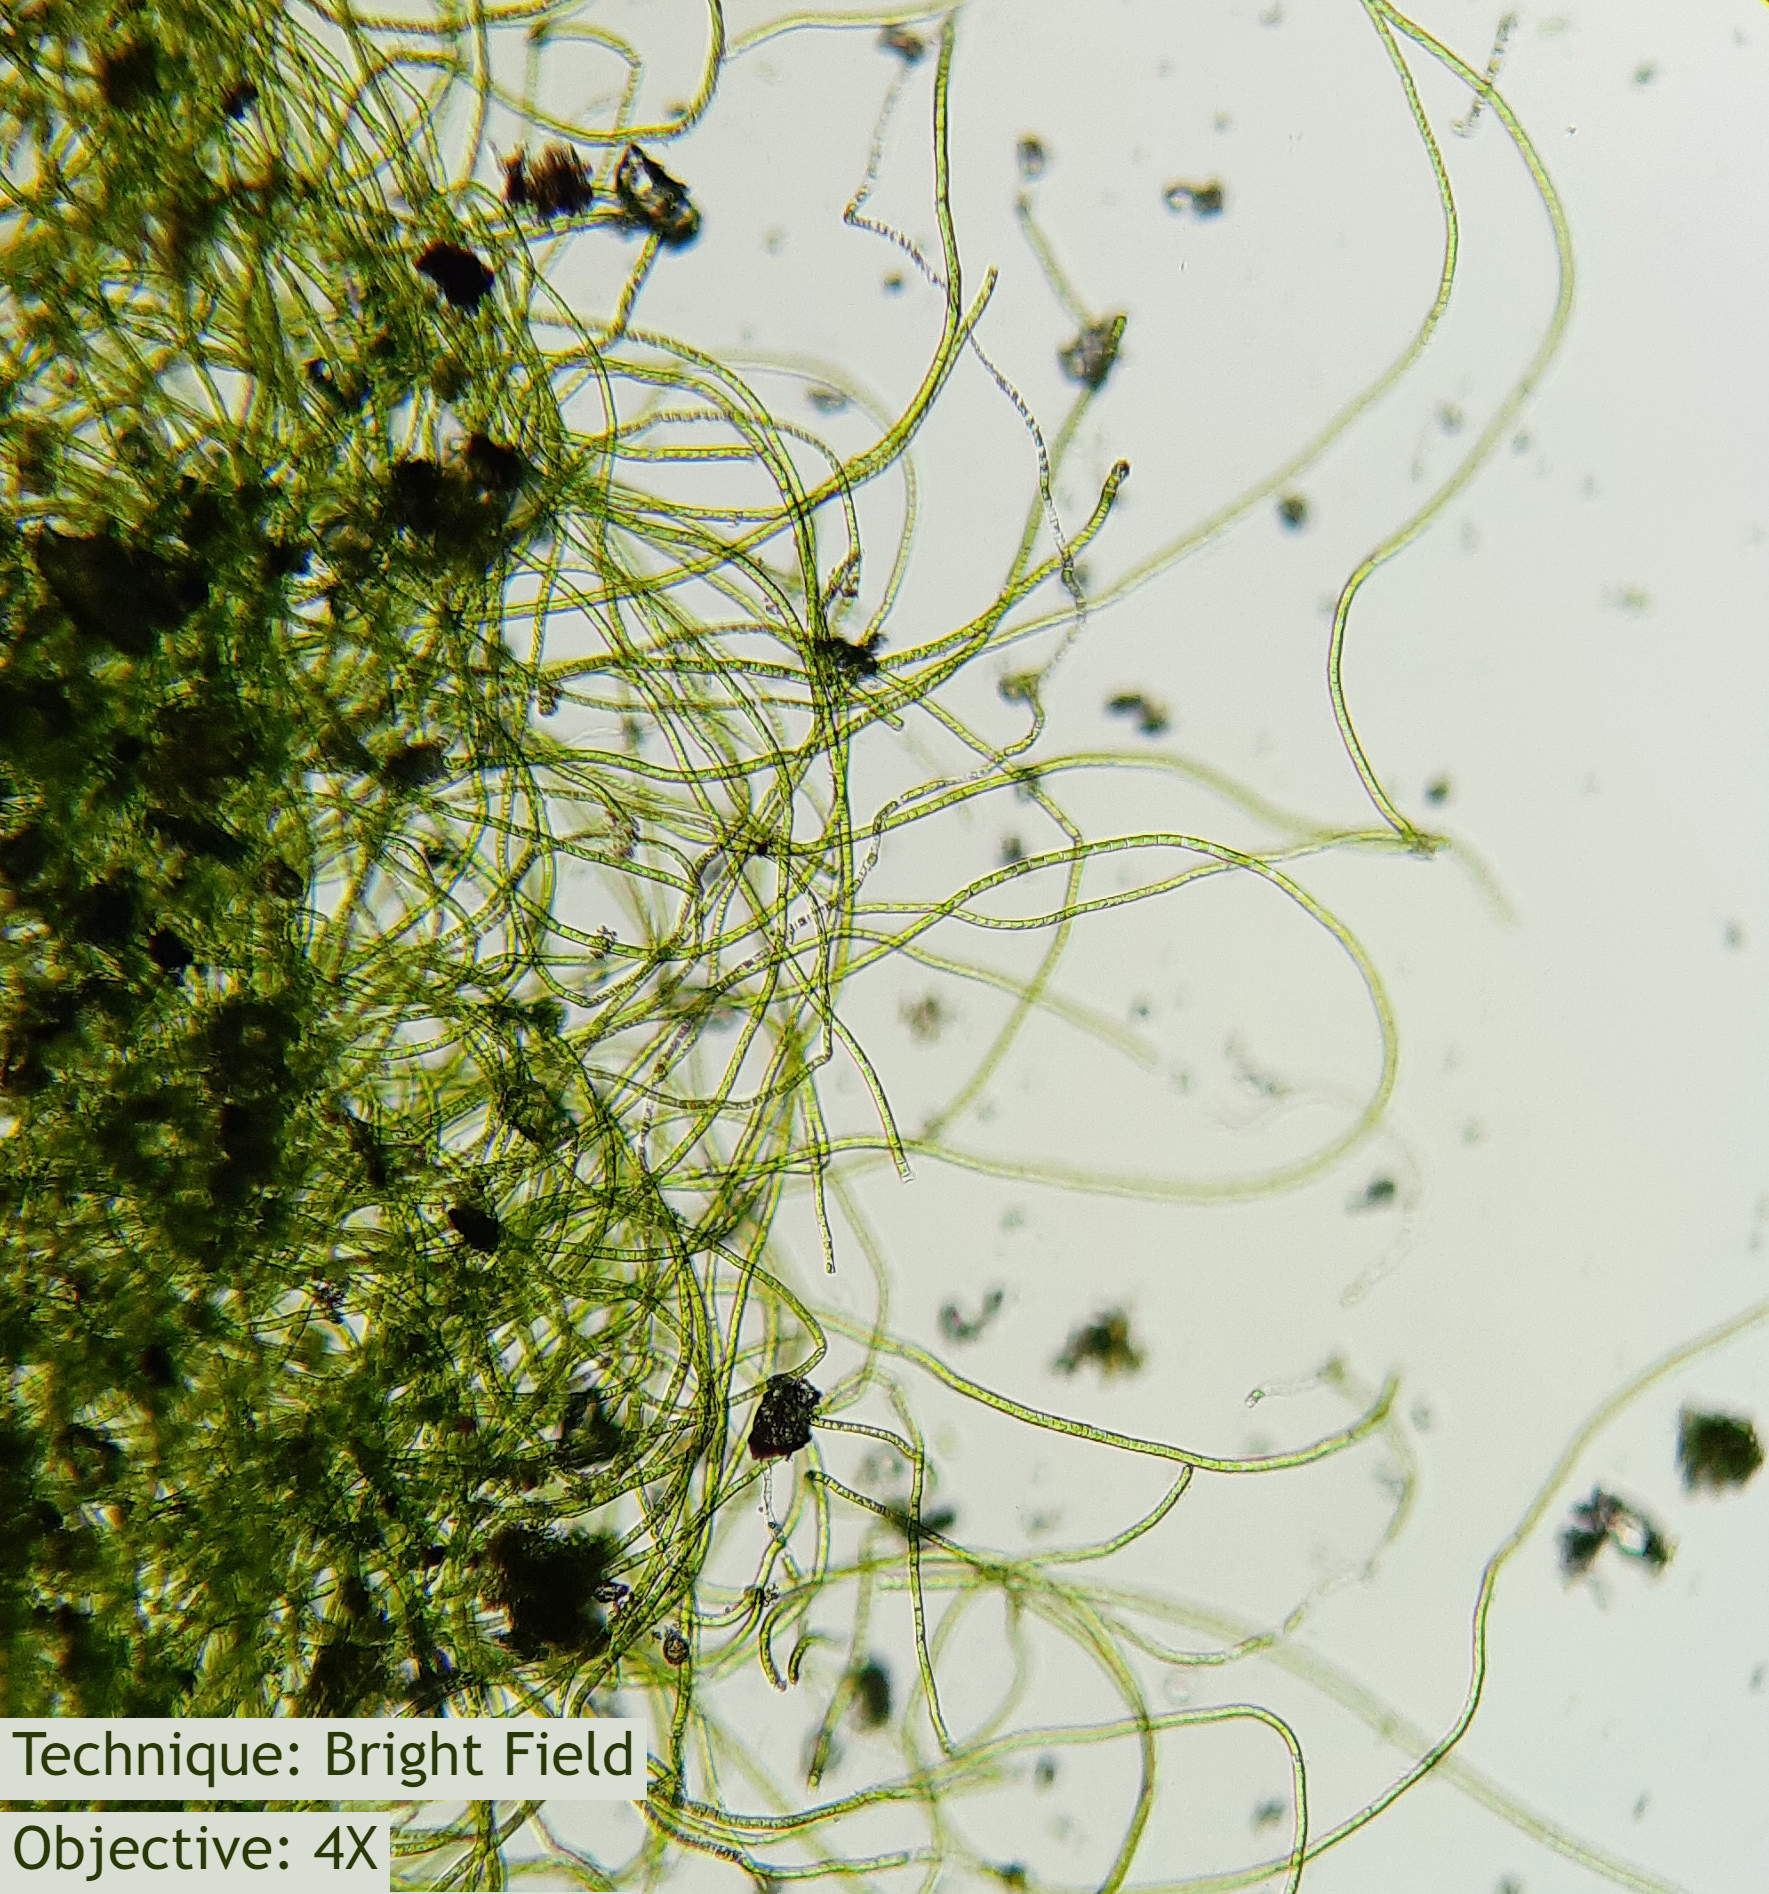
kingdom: Plantae
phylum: Charophyta
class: Klebsormidiophyceae
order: Klebsormidiales
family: Klebsormidiaceae
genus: Klebsormidium
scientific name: Klebsormidium
